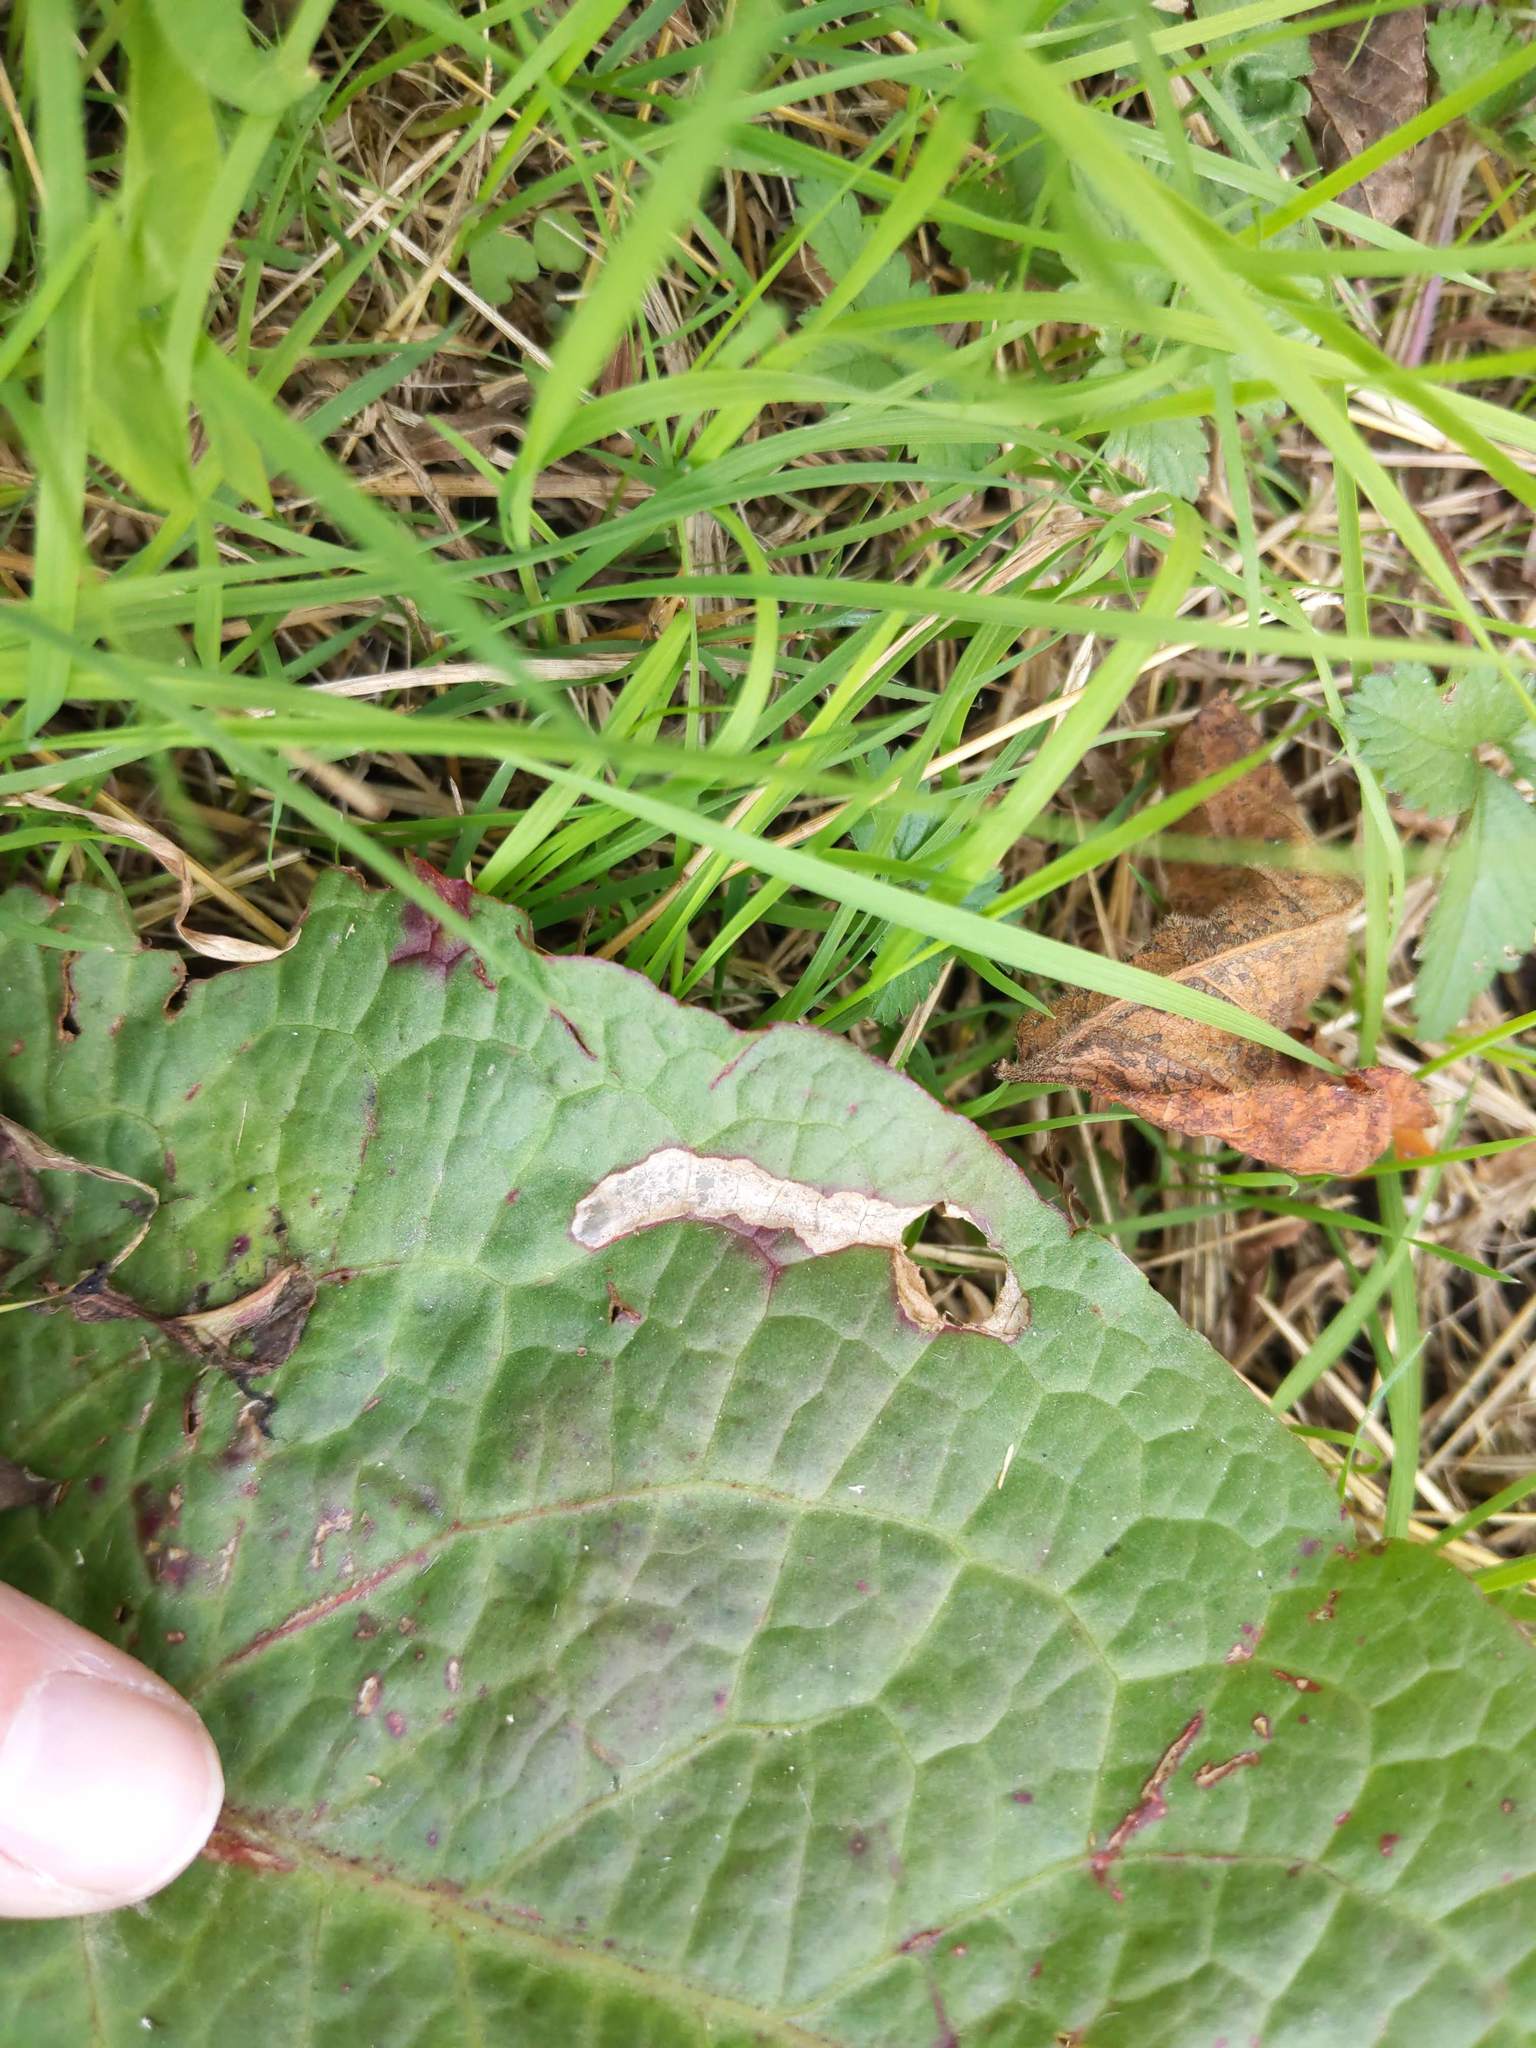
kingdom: Animalia
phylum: Arthropoda
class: Insecta
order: Diptera
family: Anthomyiidae
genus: Pegomya
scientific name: Pegomya bicolor
